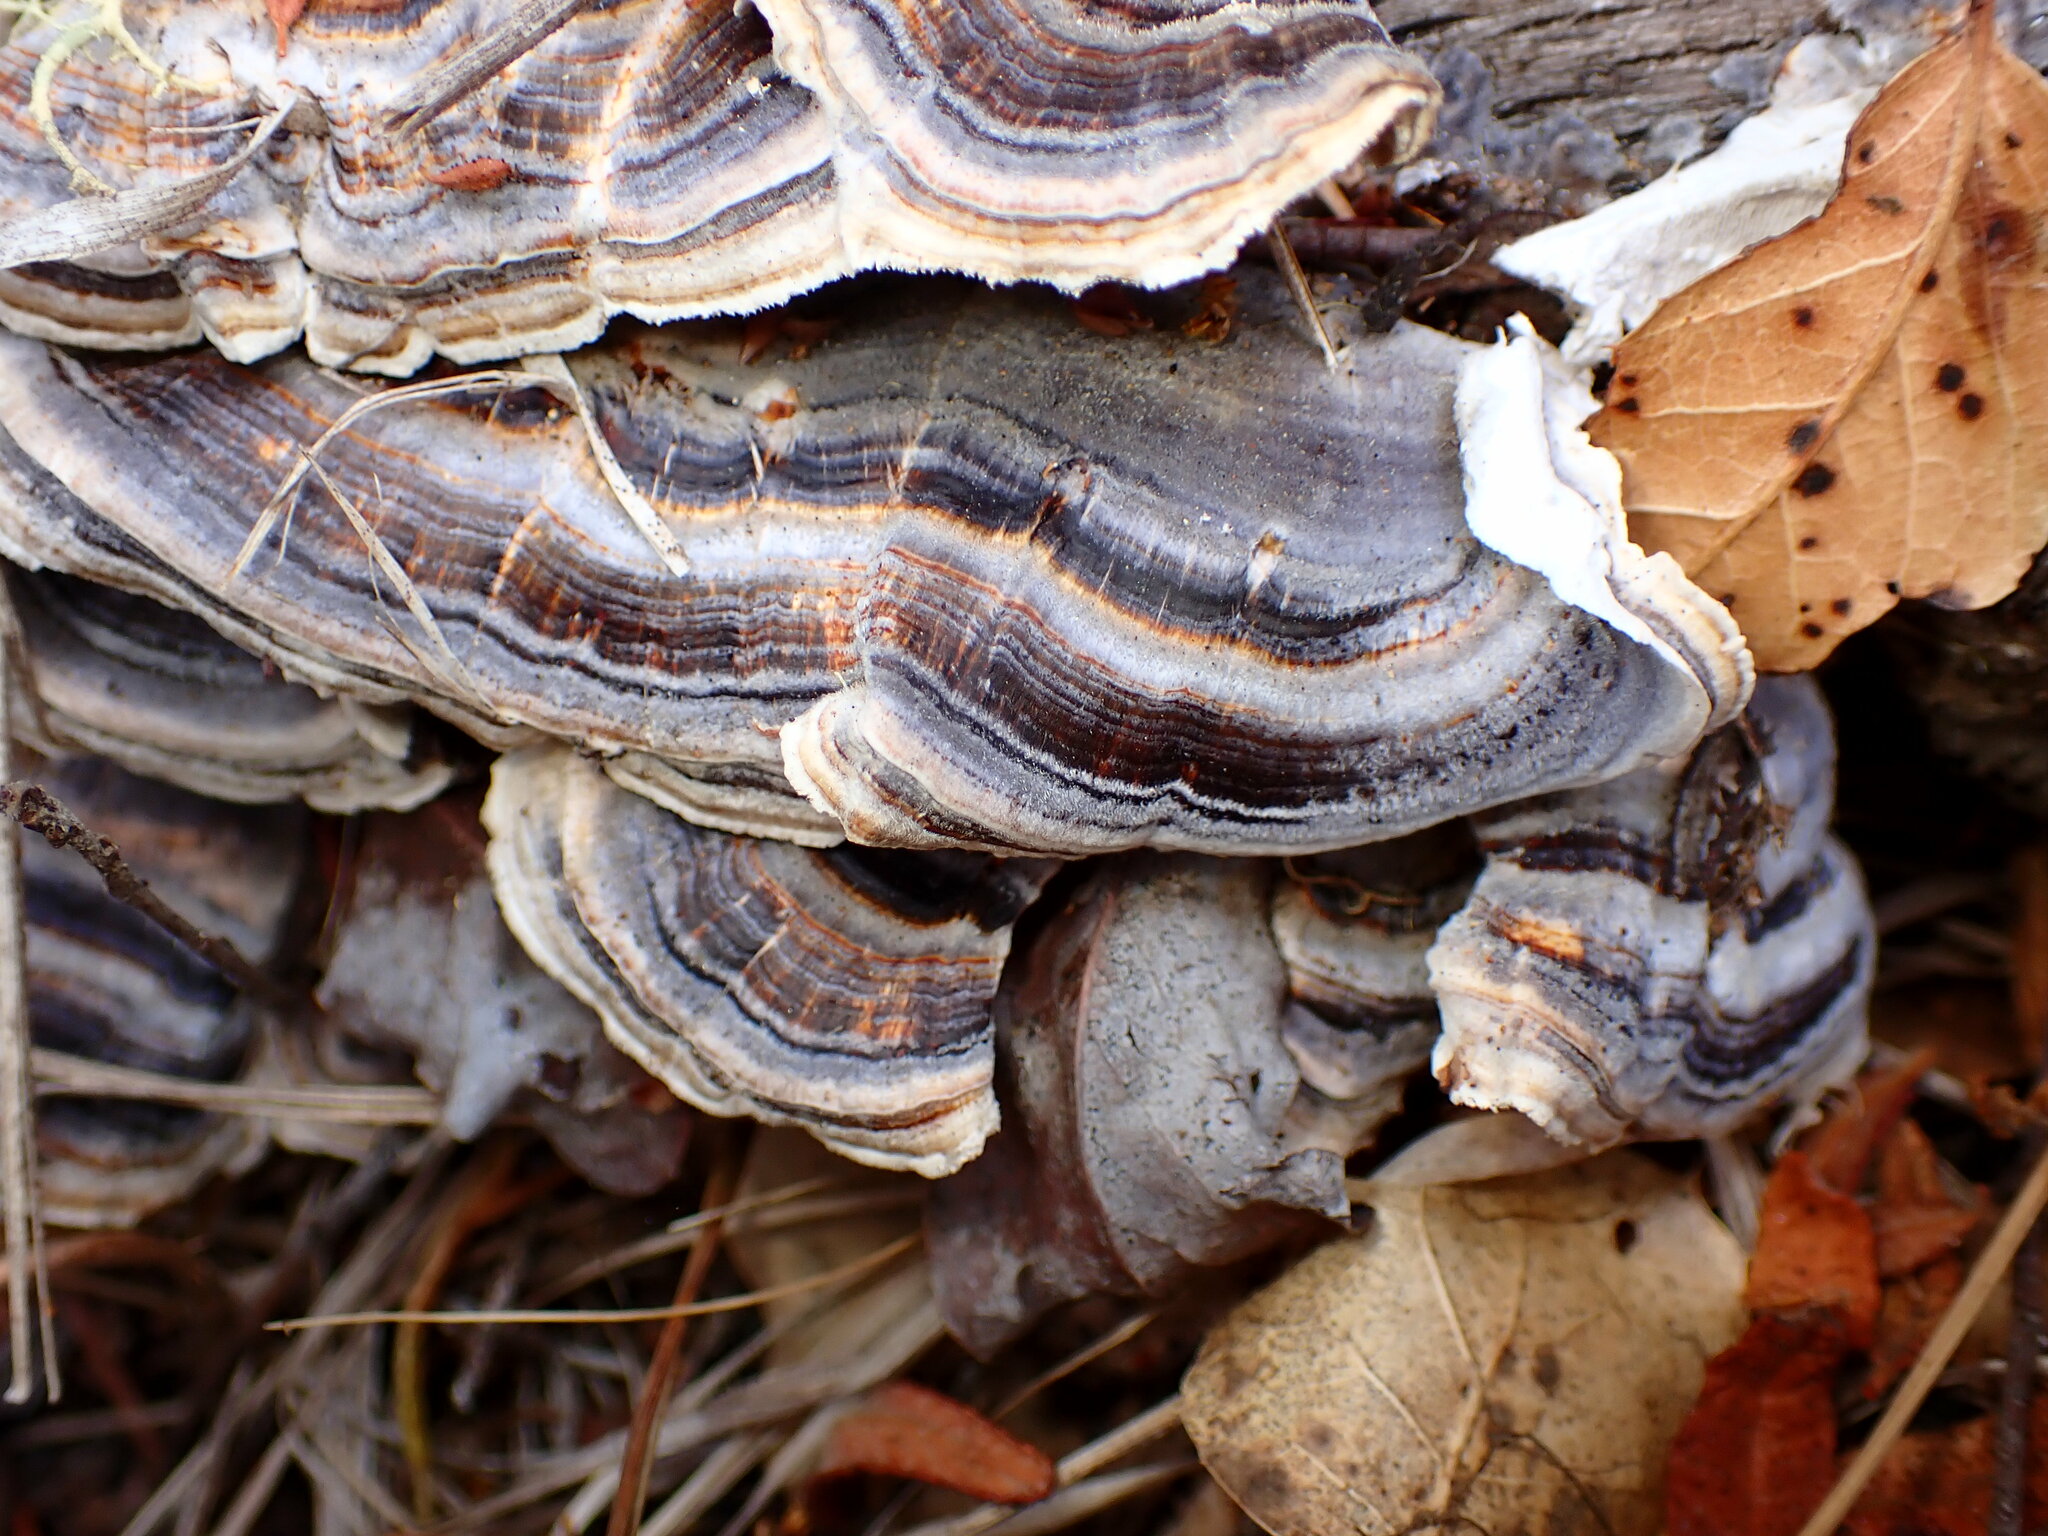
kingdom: Fungi
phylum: Basidiomycota
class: Agaricomycetes
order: Polyporales
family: Polyporaceae
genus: Trametes
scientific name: Trametes versicolor
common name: Turkeytail
